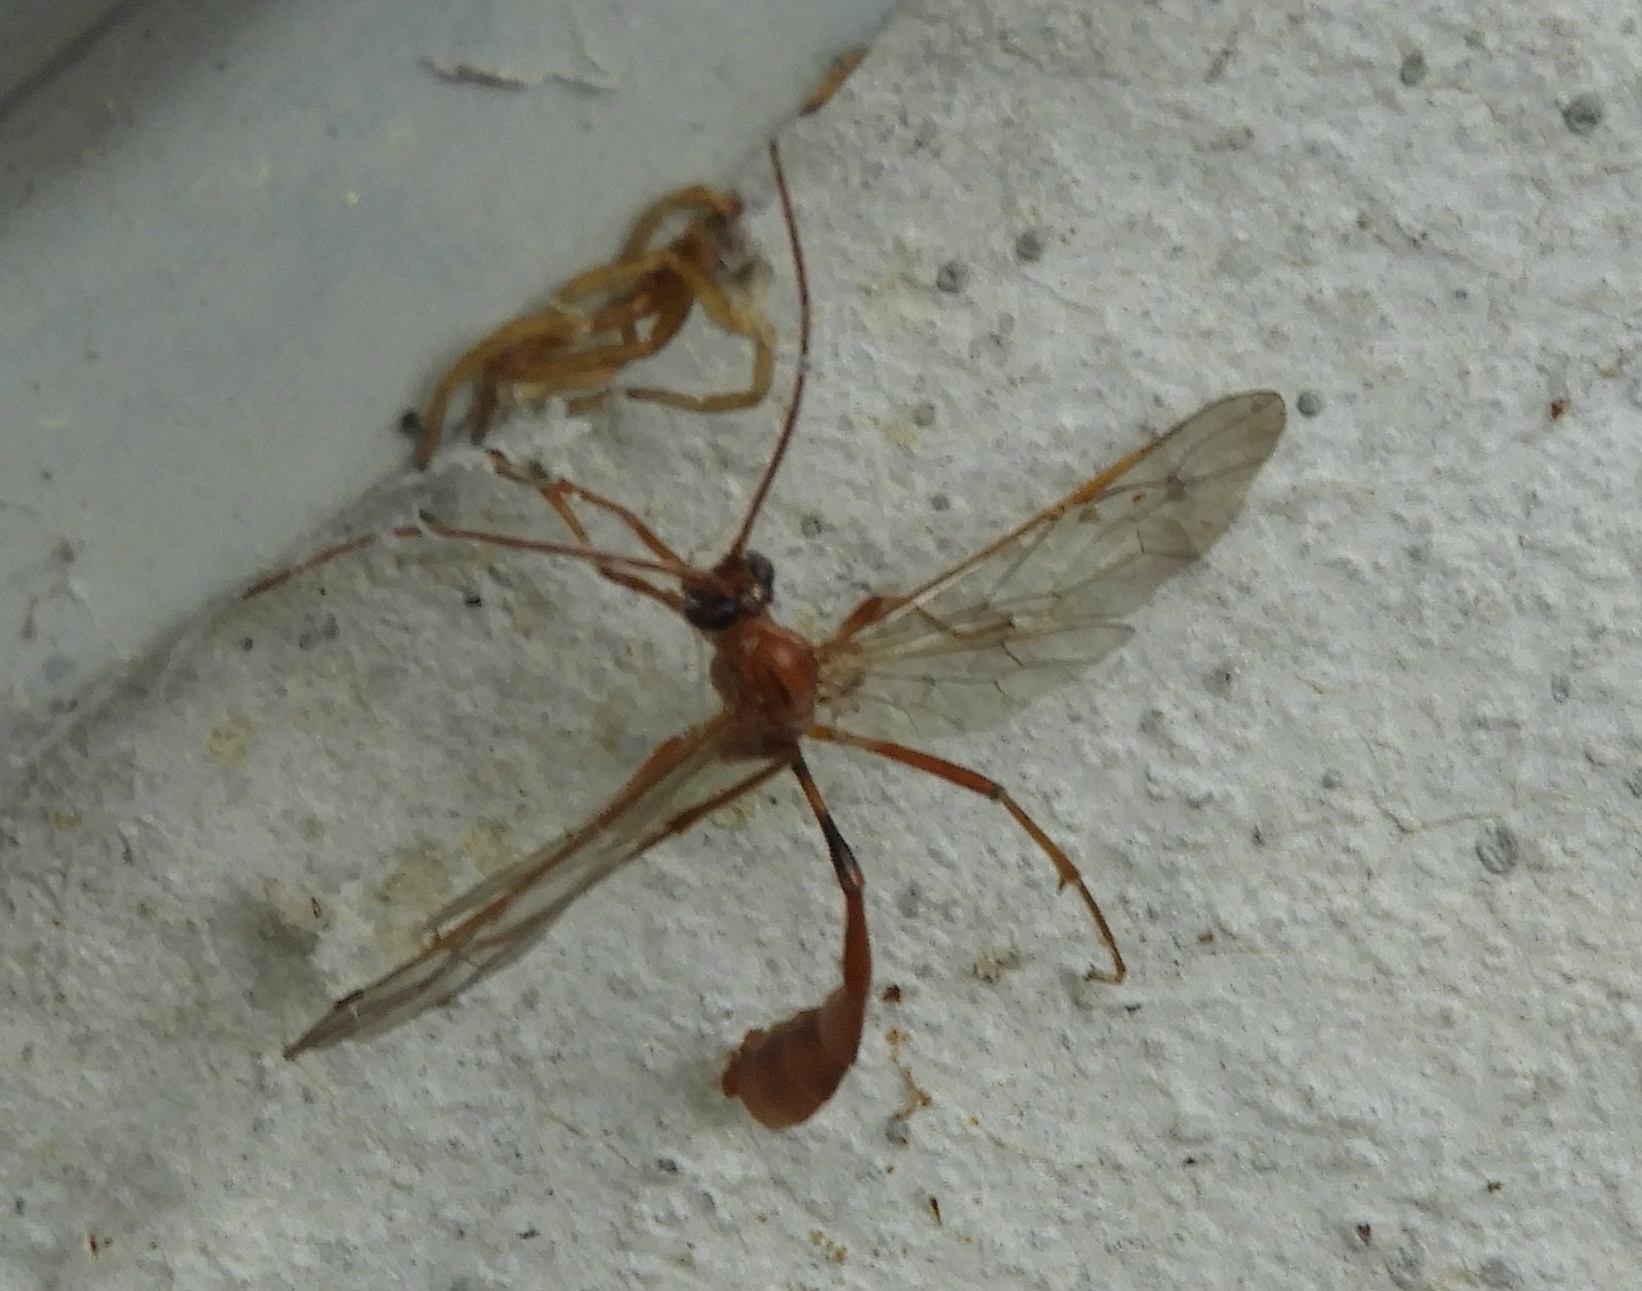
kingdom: Animalia
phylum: Arthropoda
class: Insecta
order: Hymenoptera
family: Ichneumonidae
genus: Enicospilus
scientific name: Enicospilus
